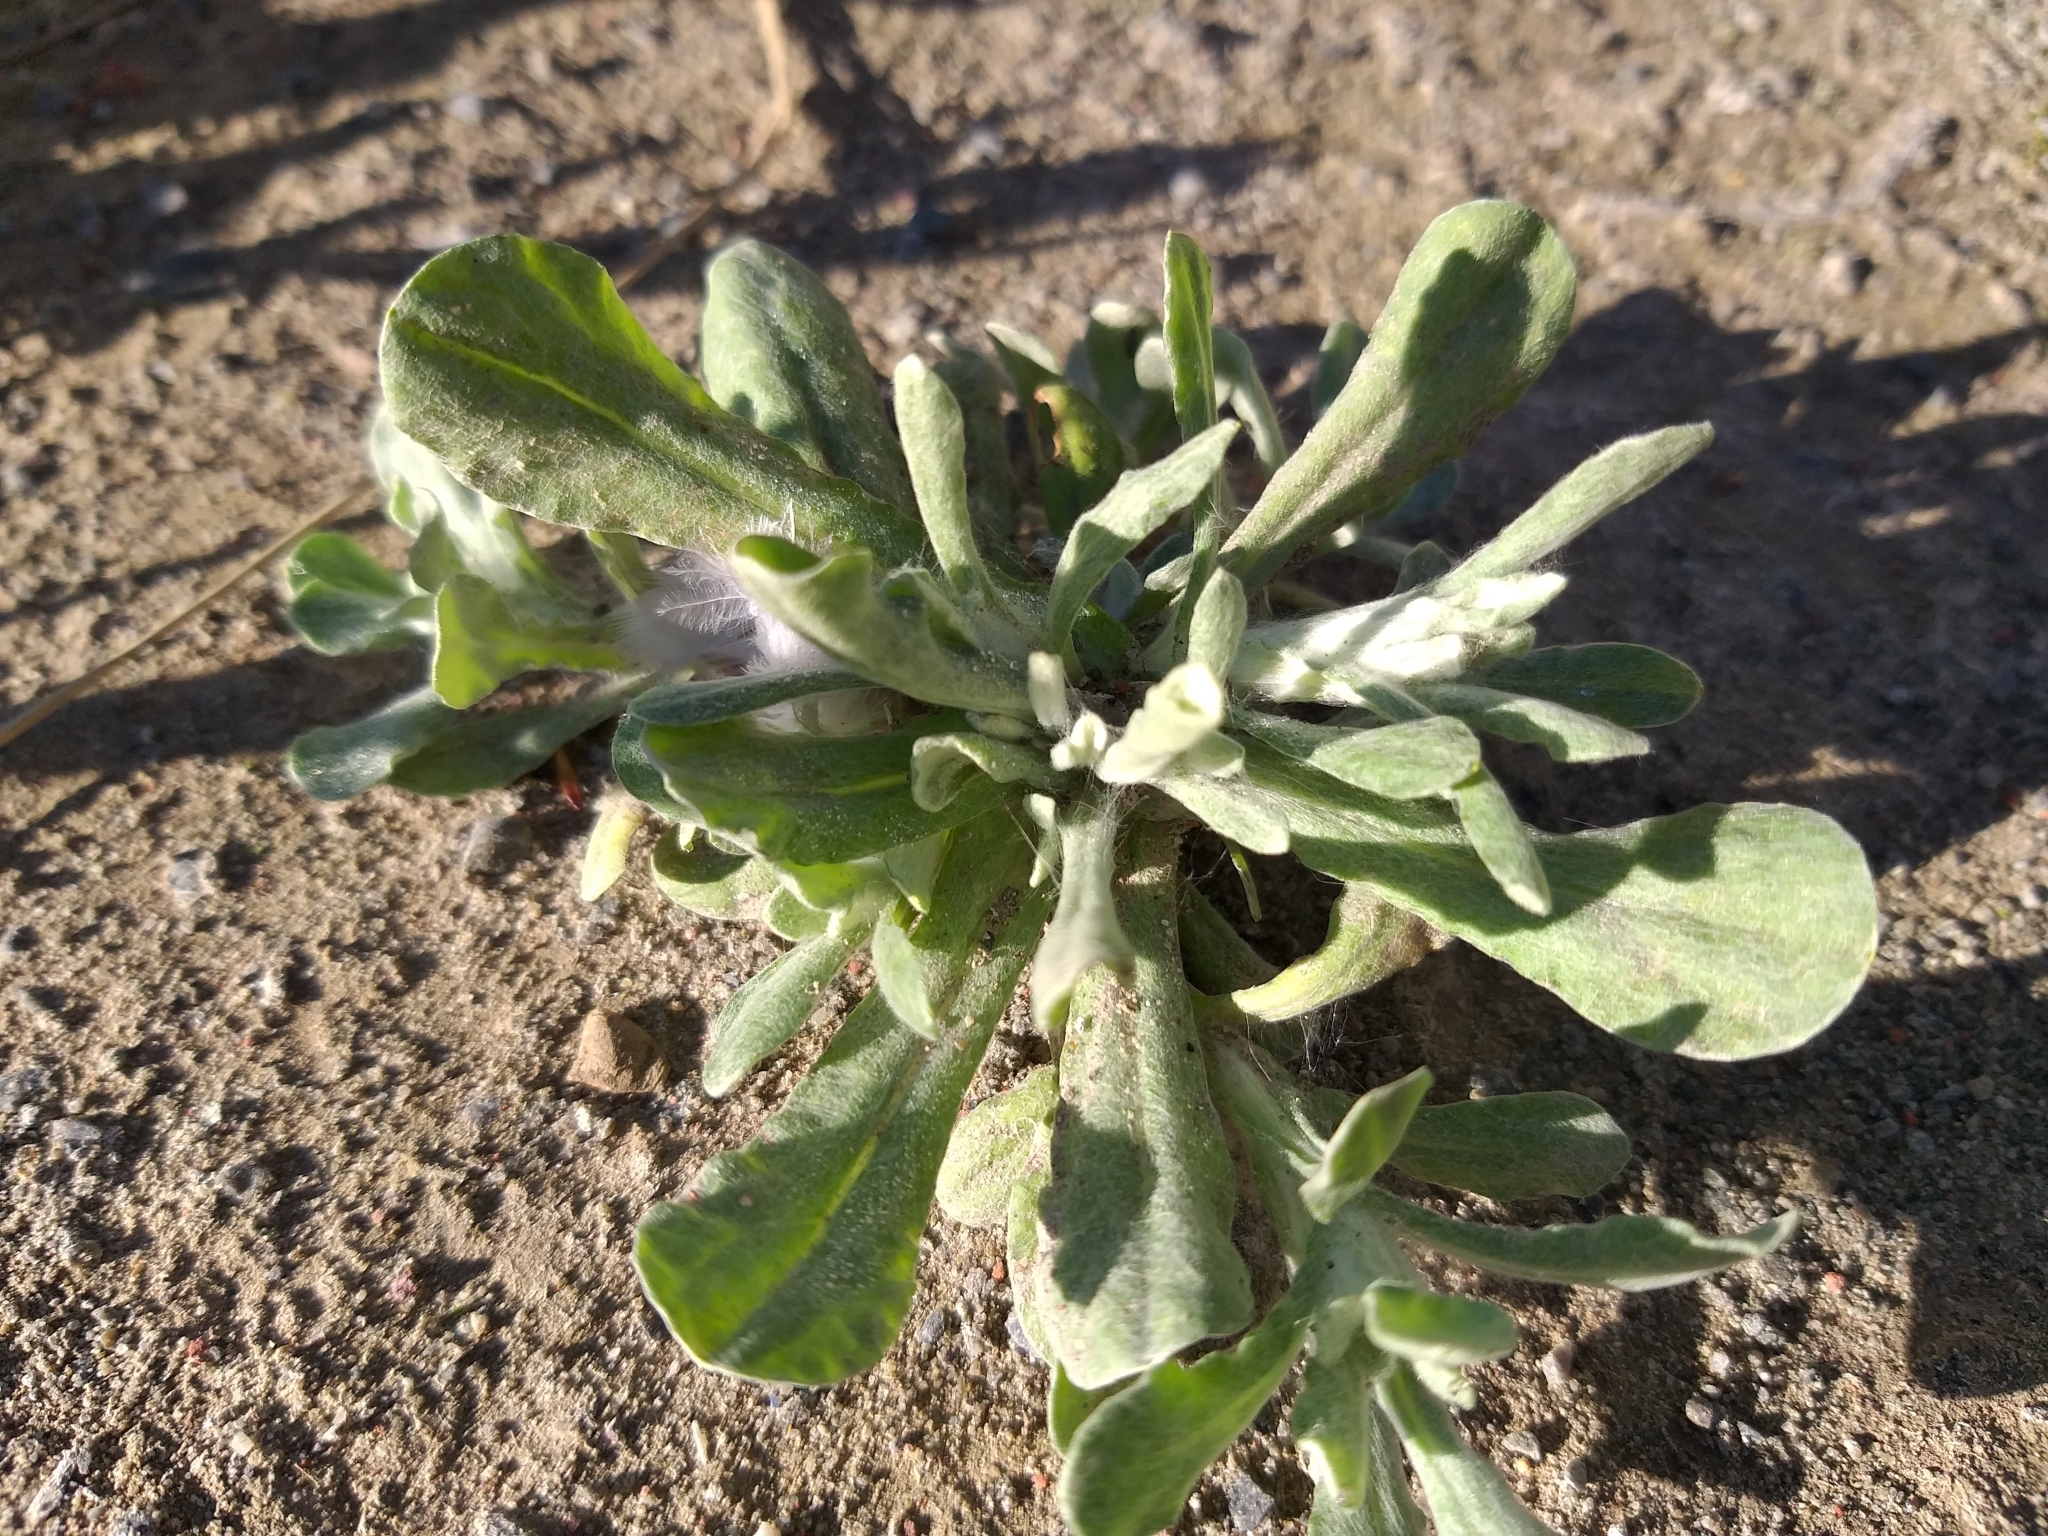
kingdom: Plantae
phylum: Tracheophyta
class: Magnoliopsida
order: Asterales
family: Asteraceae
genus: Helichrysum
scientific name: Helichrysum luteoalbum
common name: Daisy
